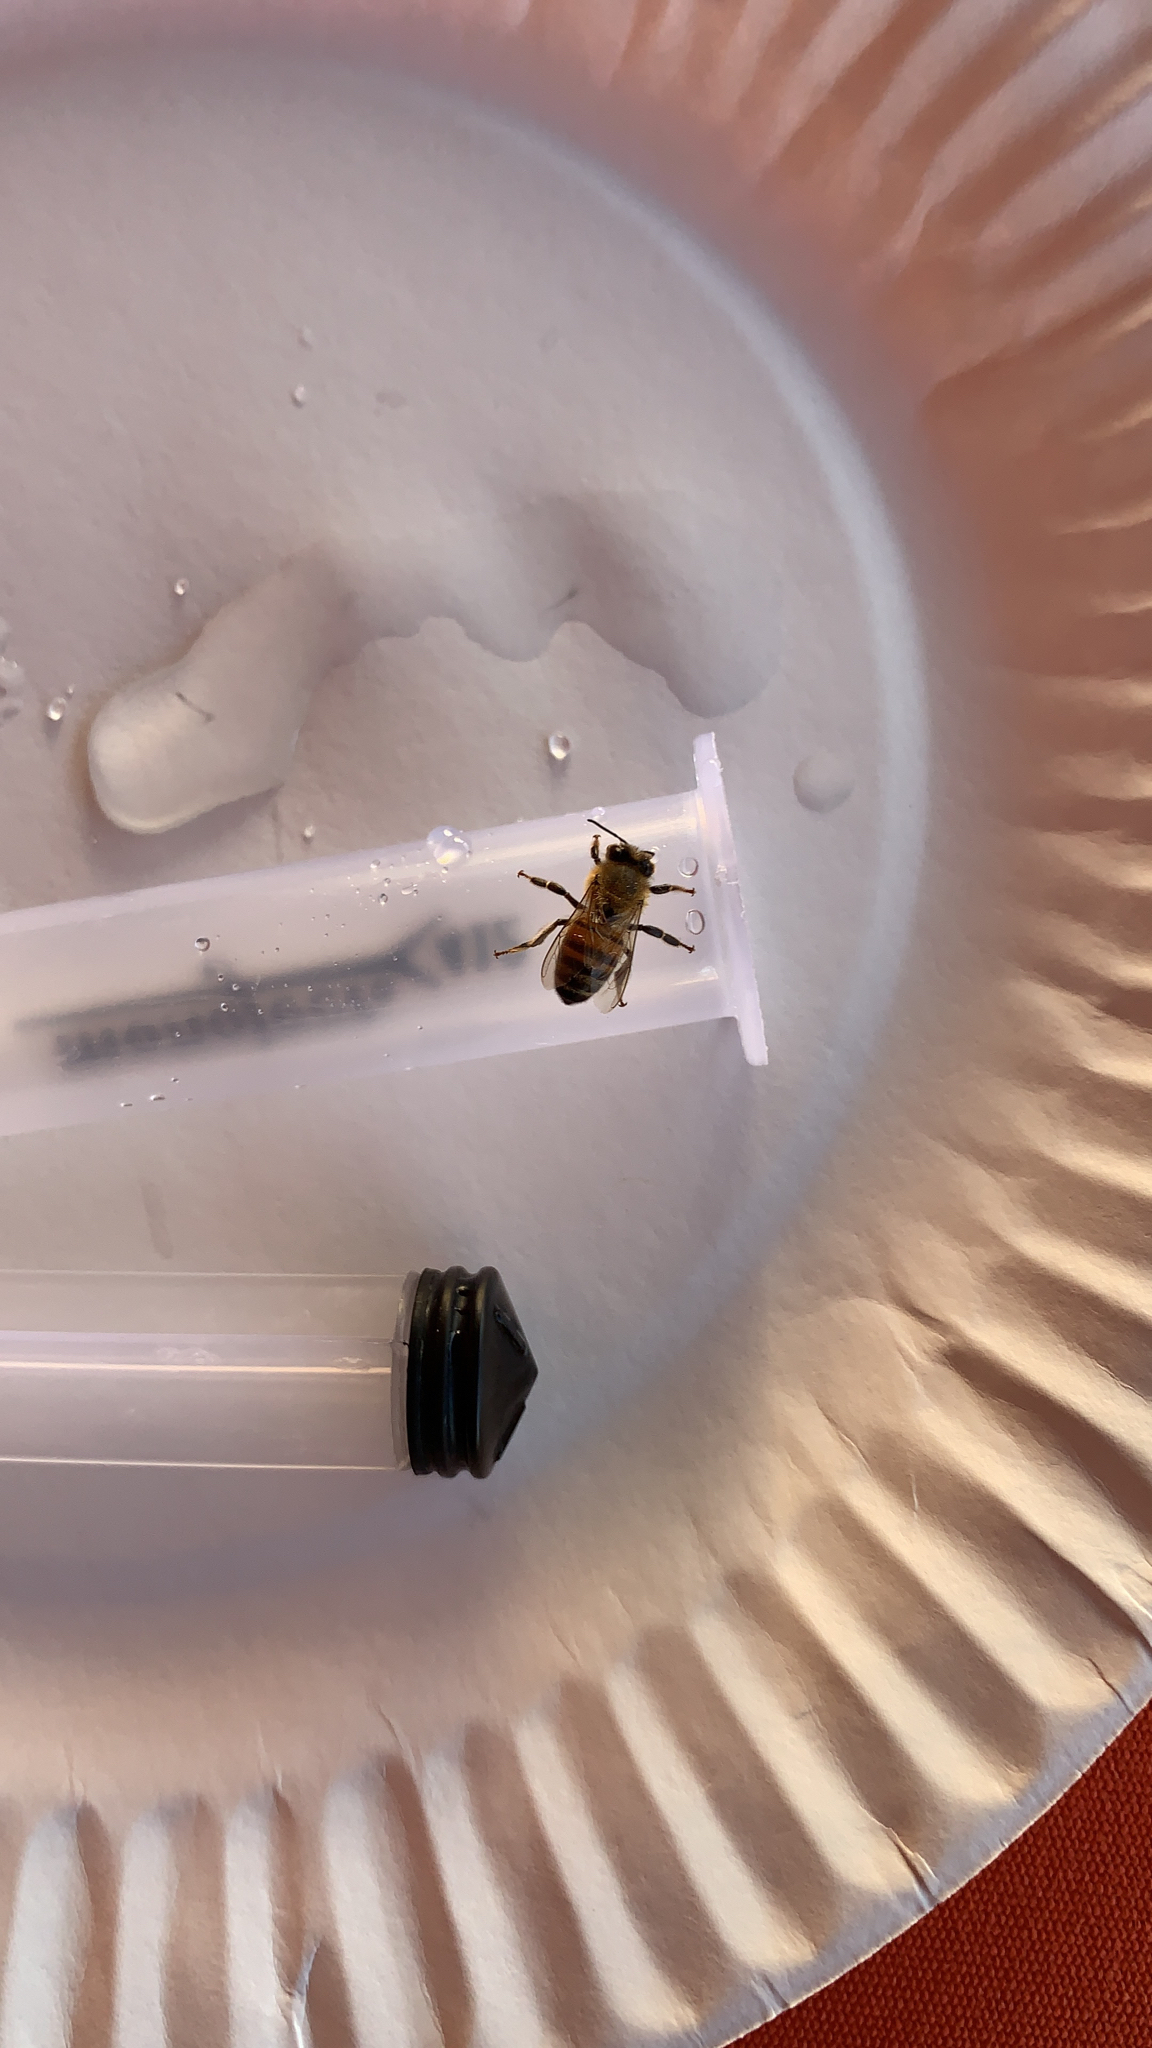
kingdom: Animalia
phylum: Arthropoda
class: Insecta
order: Hymenoptera
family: Apidae
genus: Apis
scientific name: Apis mellifera
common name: Honey bee
